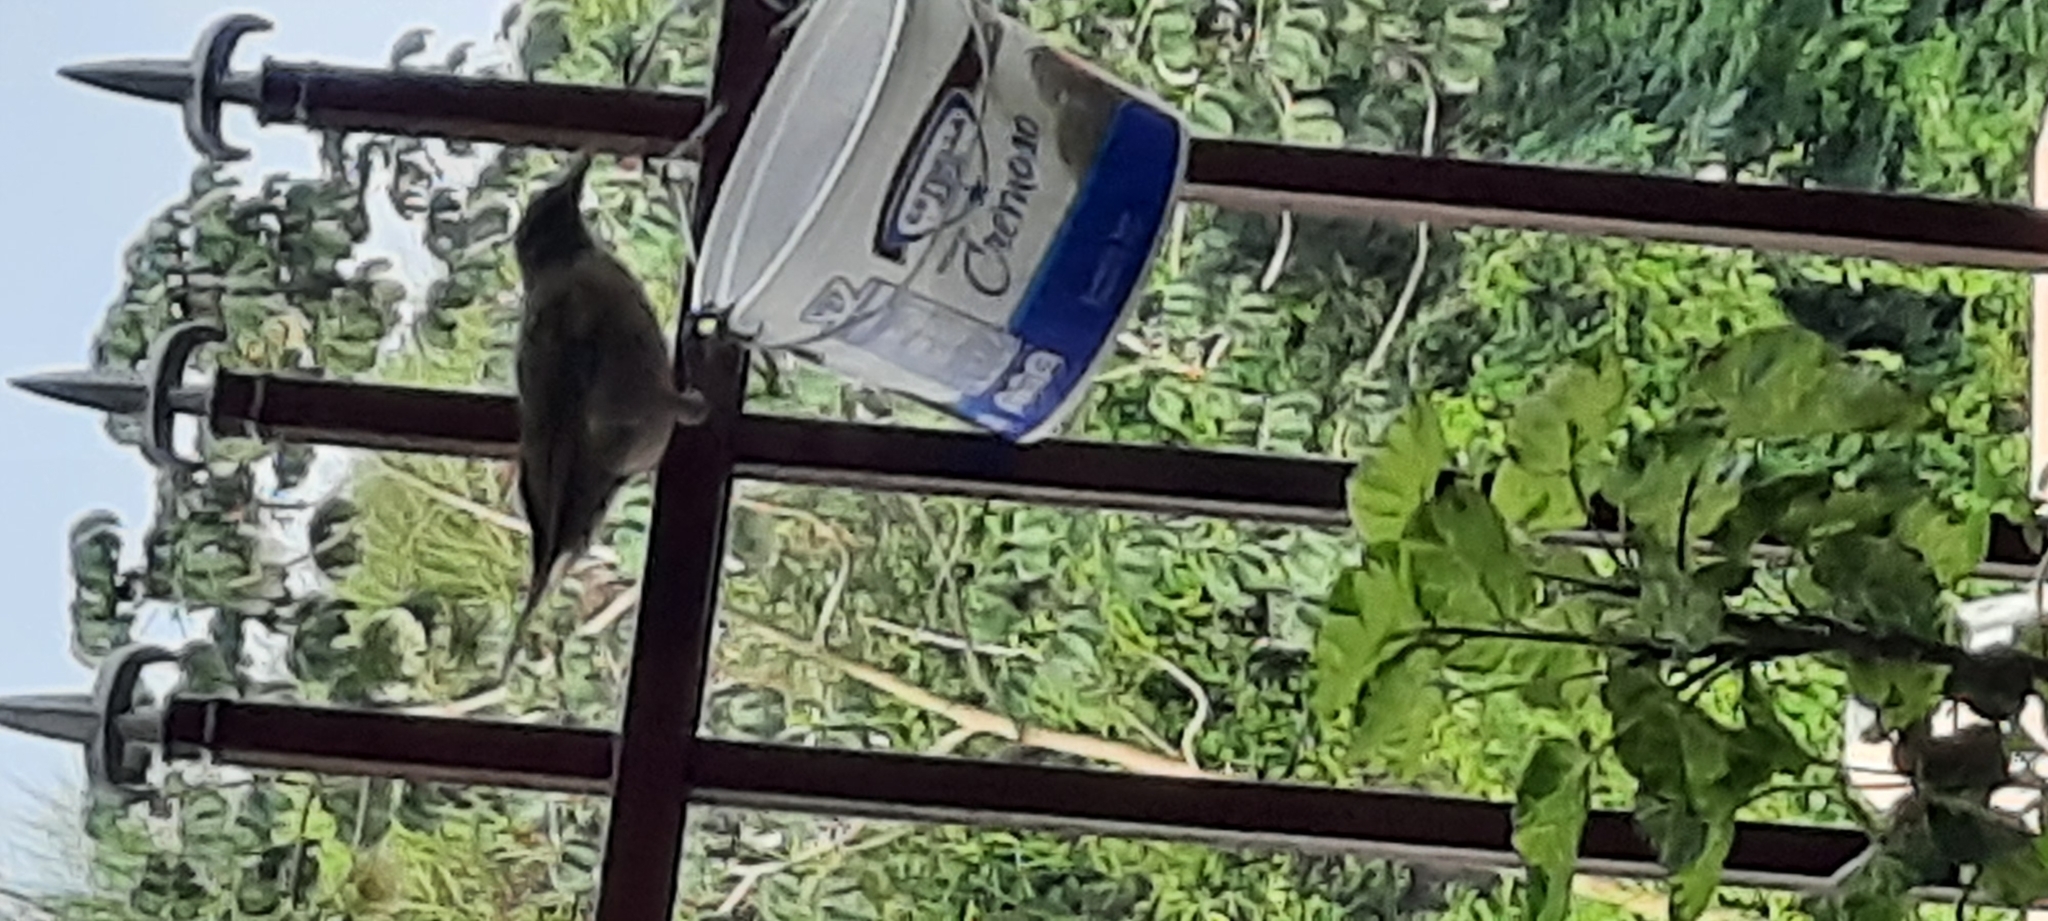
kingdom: Animalia
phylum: Chordata
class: Aves
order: Passeriformes
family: Turdidae
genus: Turdus
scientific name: Turdus grayi
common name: Clay-colored thrush
